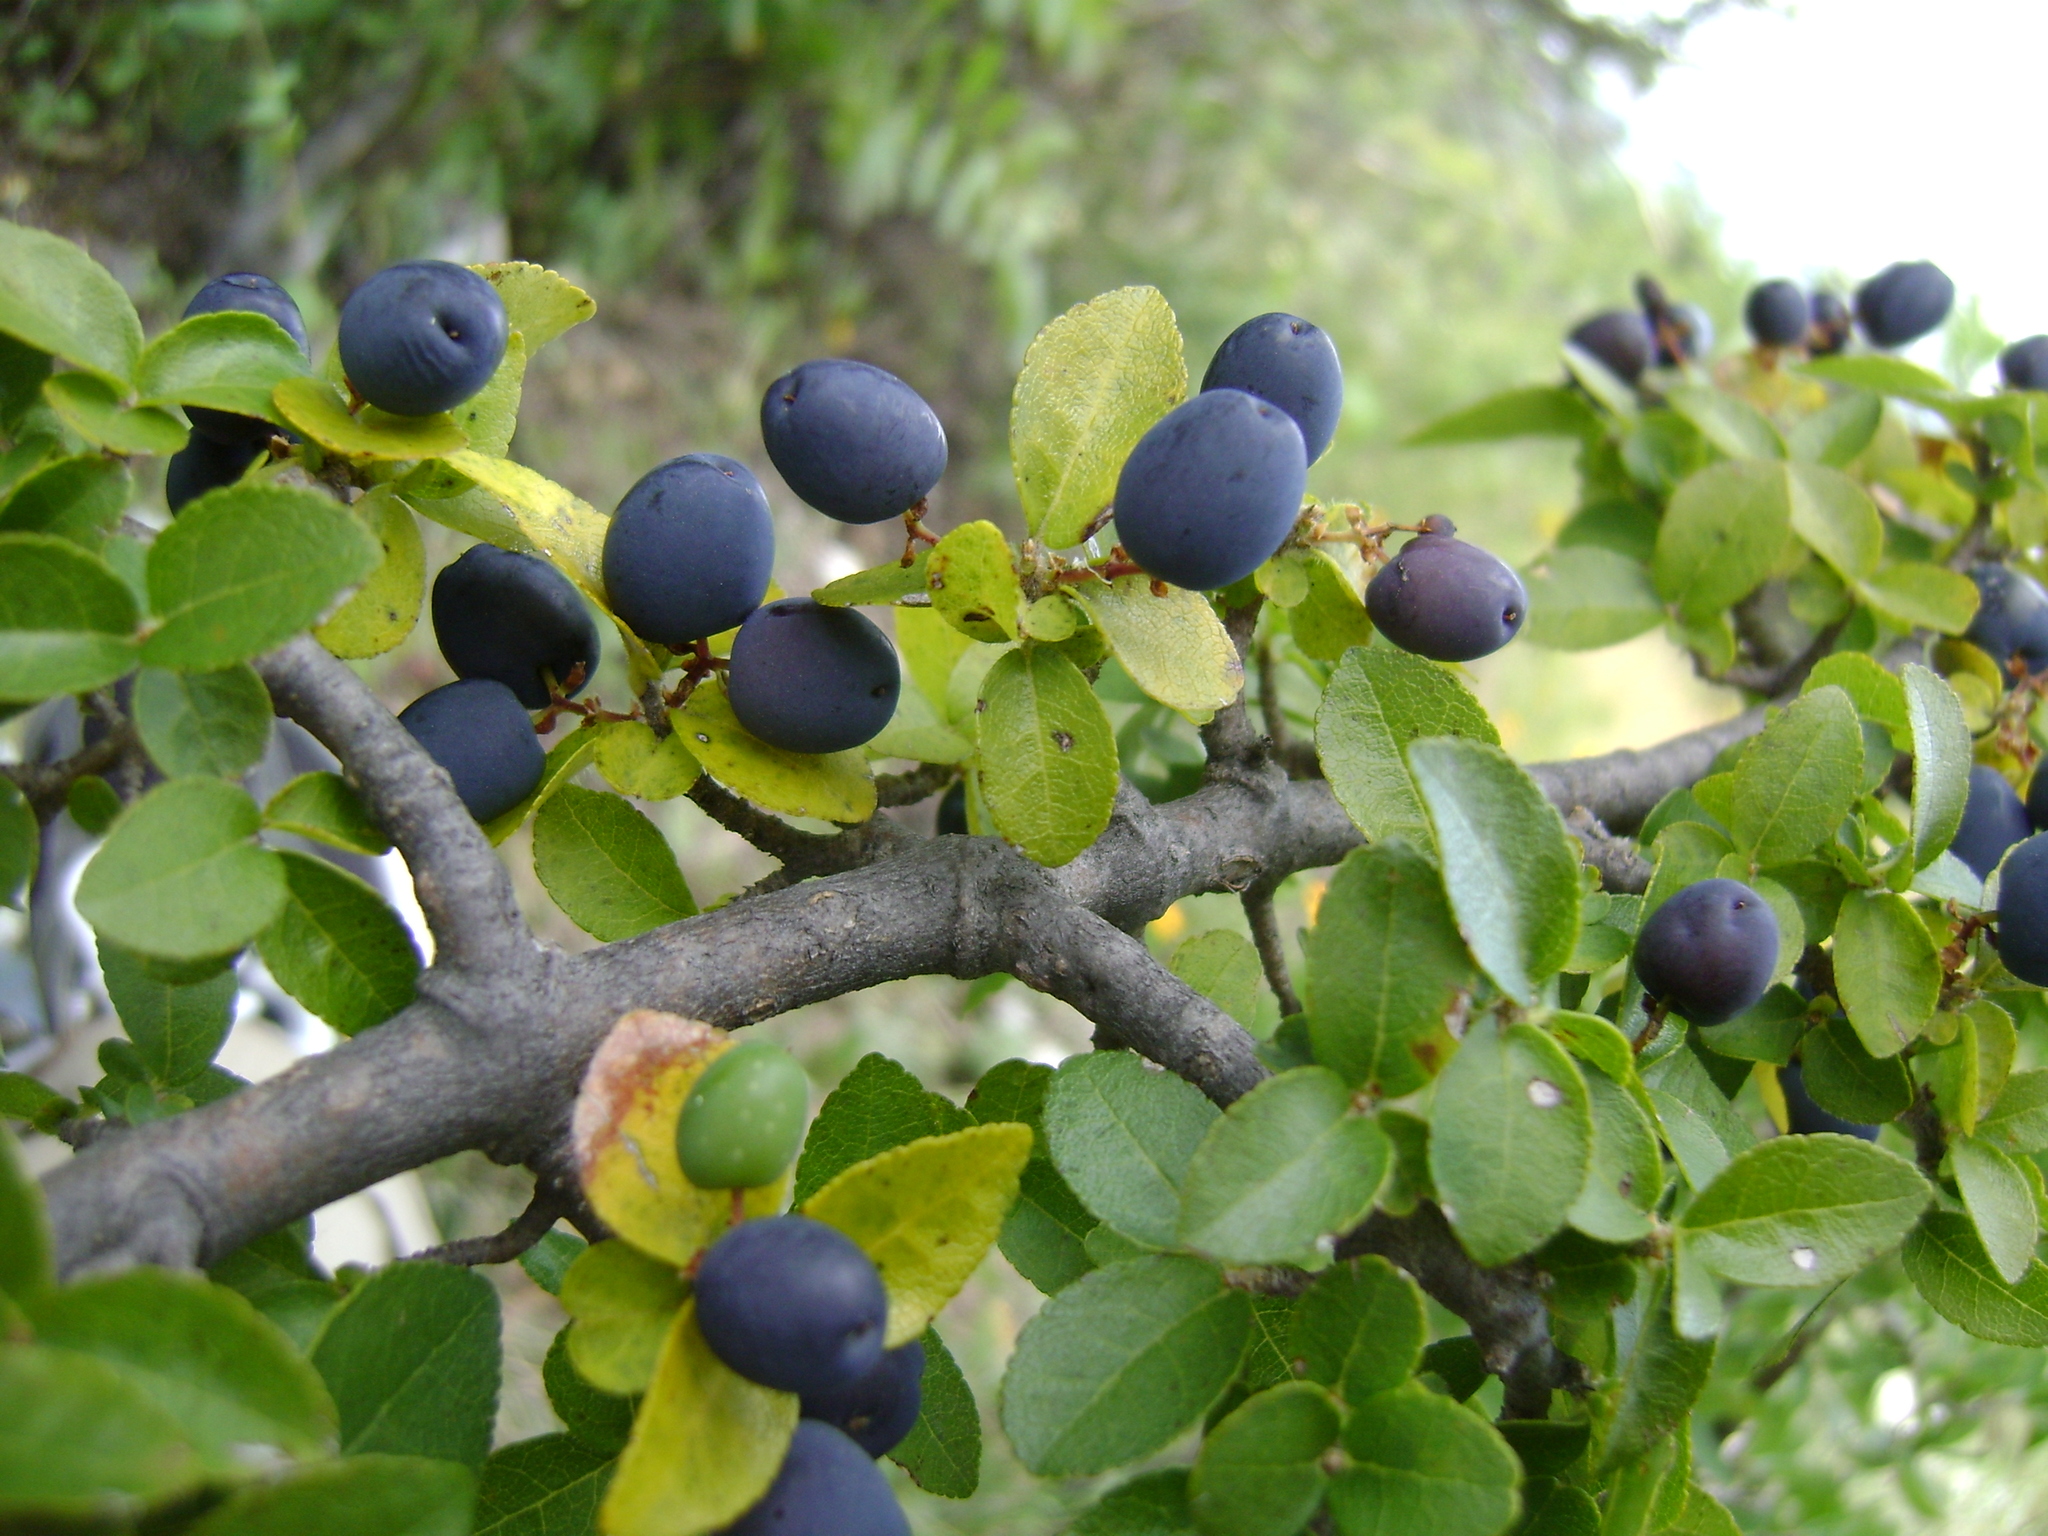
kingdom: Plantae
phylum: Tracheophyta
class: Magnoliopsida
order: Lamiales
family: Oleaceae
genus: Forestiera
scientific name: Forestiera rotundifolia
